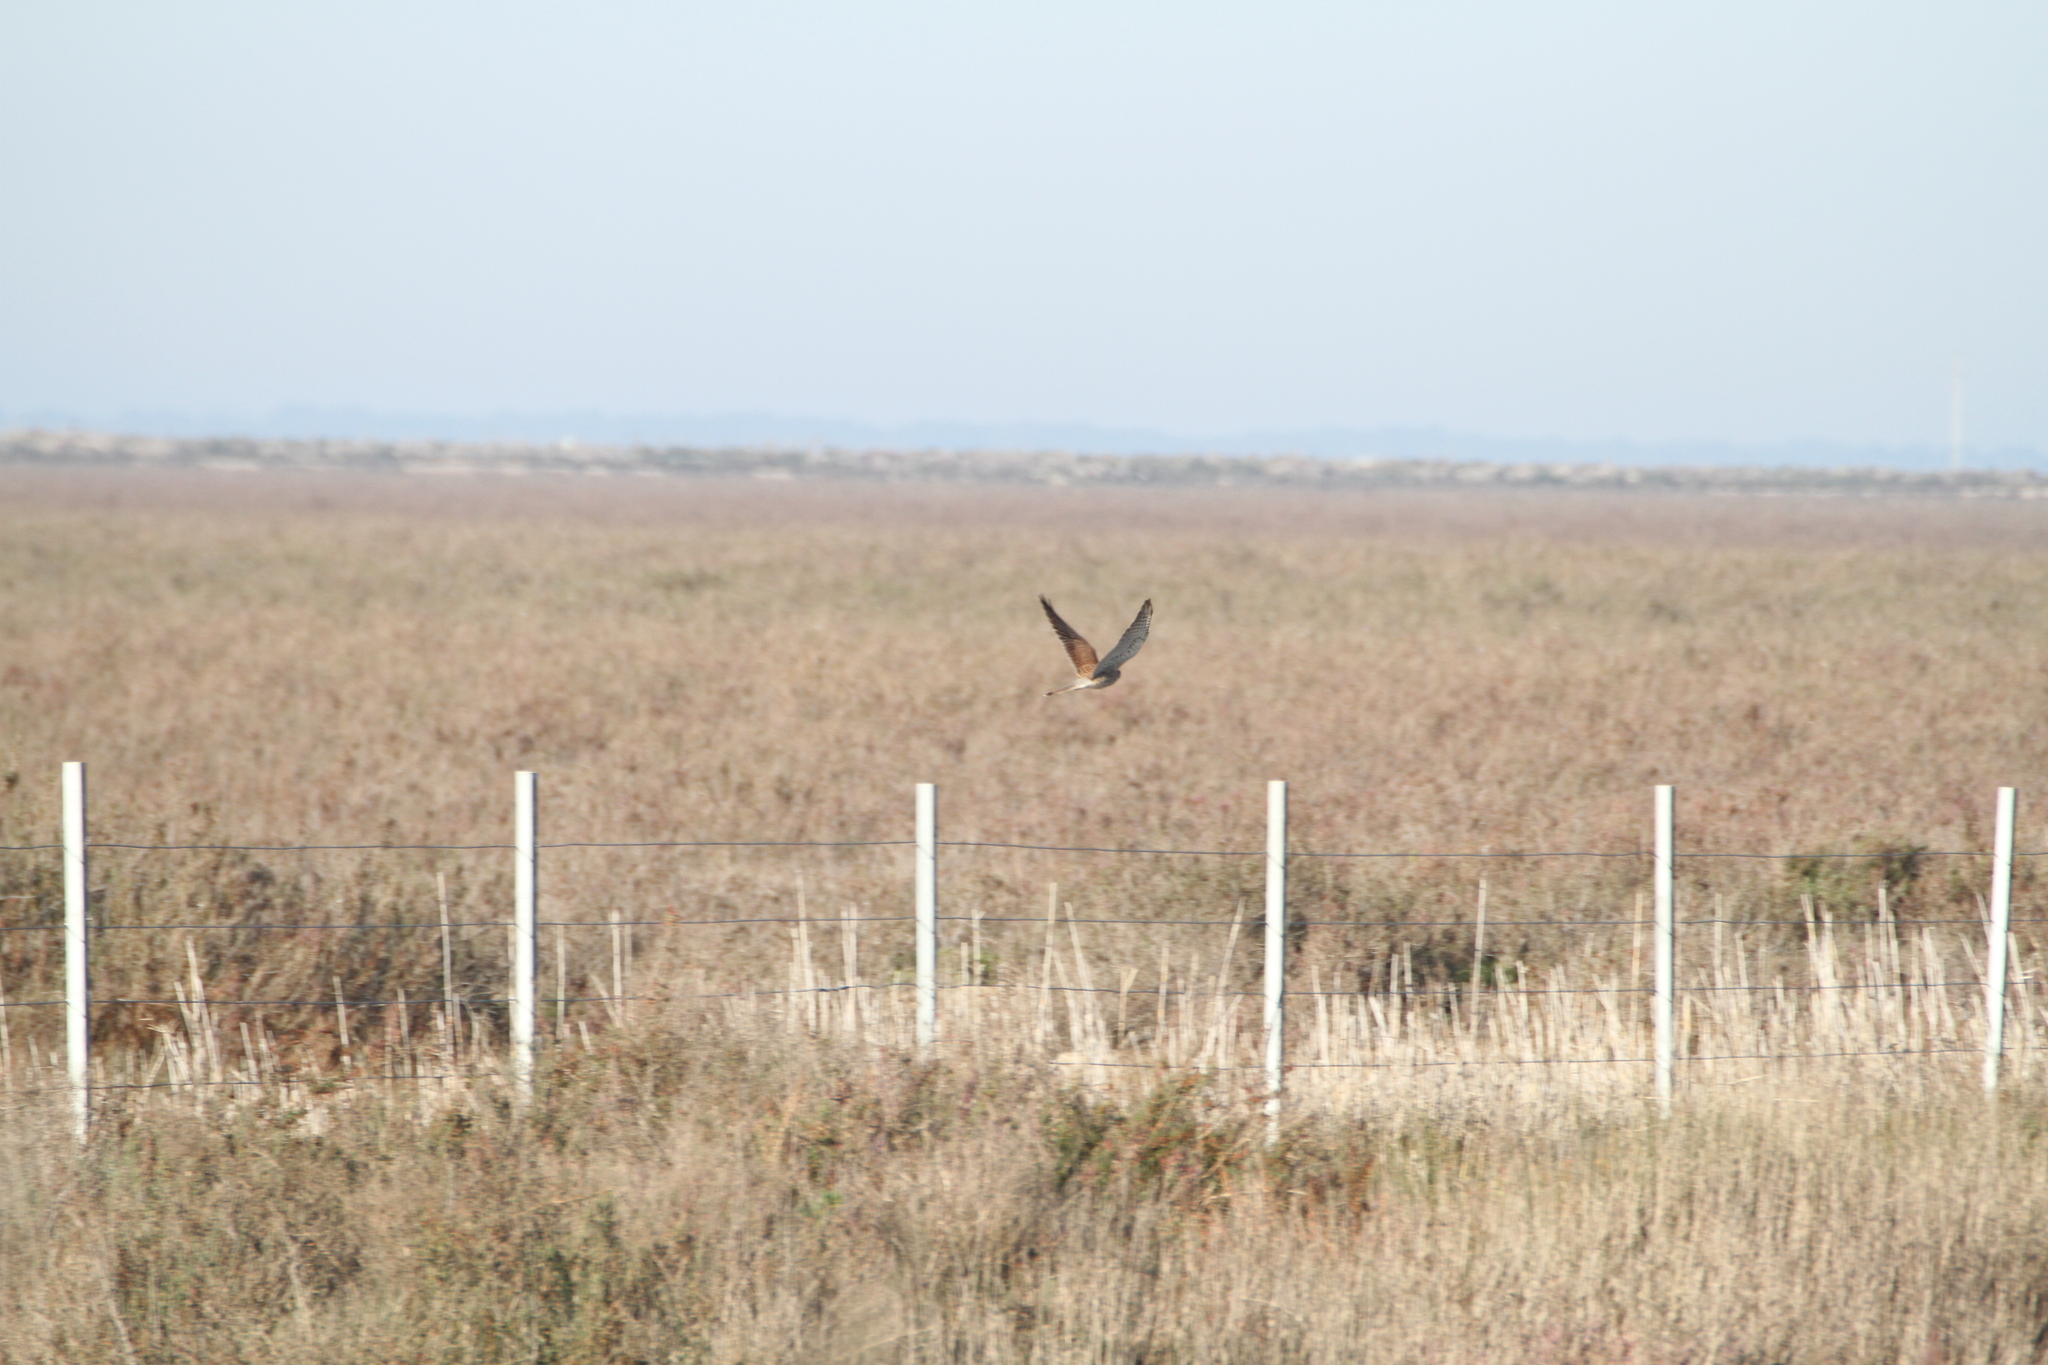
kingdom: Animalia
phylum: Chordata
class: Aves
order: Falconiformes
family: Falconidae
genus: Falco
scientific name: Falco tinnunculus
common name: Common kestrel
